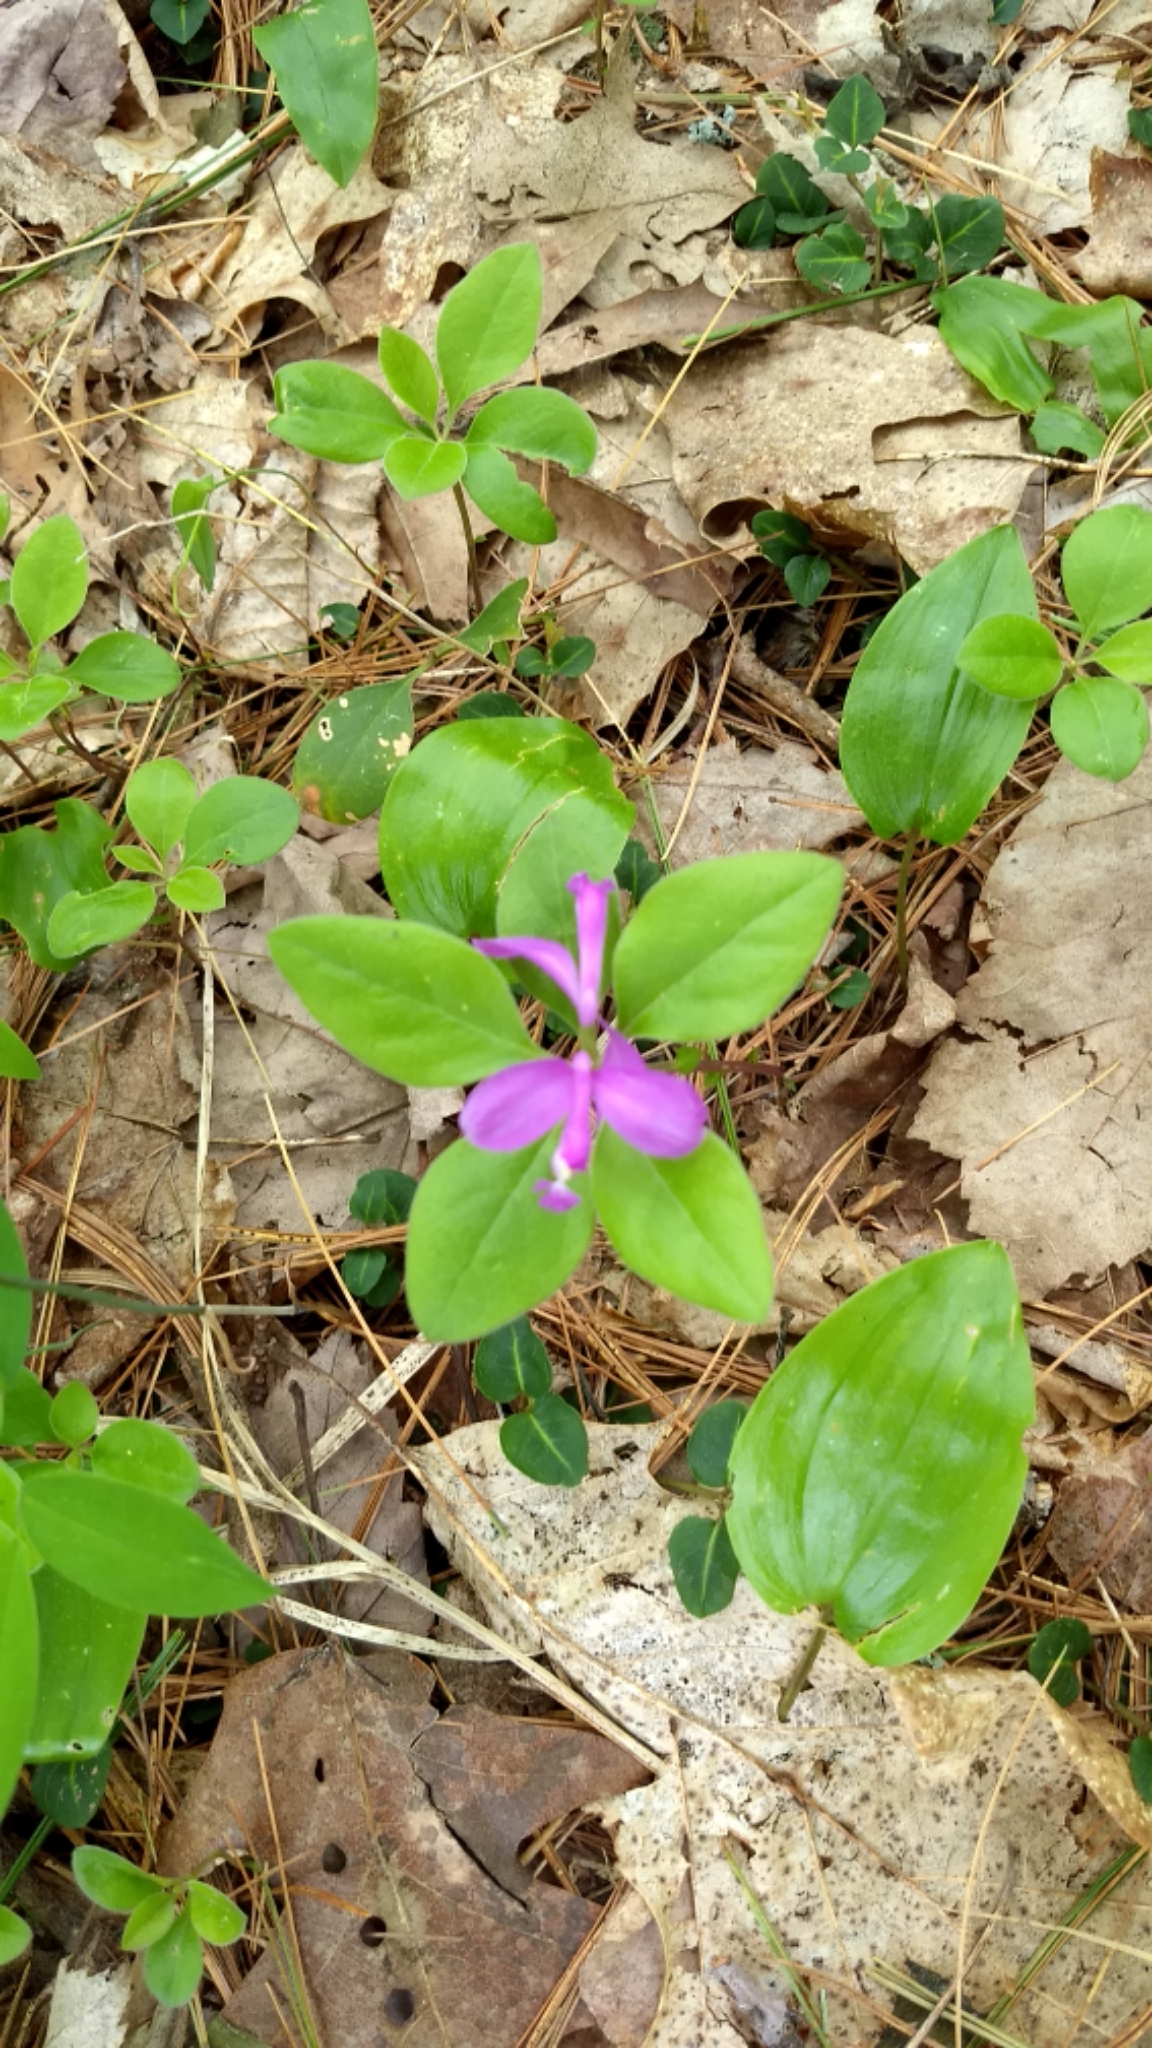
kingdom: Plantae
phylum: Tracheophyta
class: Magnoliopsida
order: Fabales
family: Polygalaceae
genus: Polygaloides
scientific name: Polygaloides paucifolia
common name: Bird-on-the-wing
